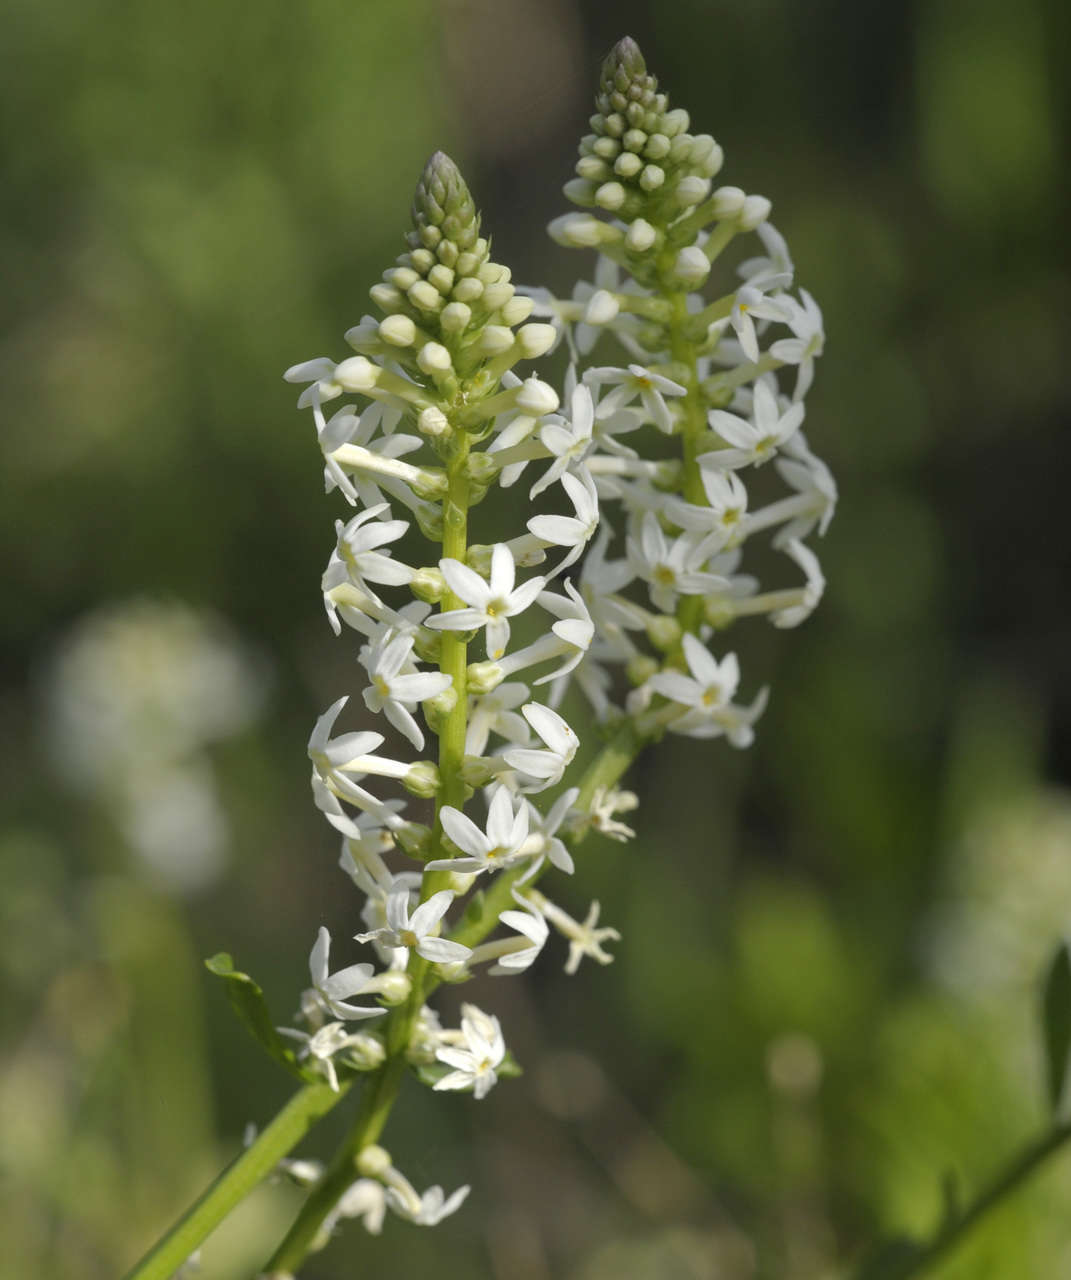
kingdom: Plantae
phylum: Tracheophyta
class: Magnoliopsida
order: Celastrales
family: Celastraceae
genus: Stackhousia
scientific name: Stackhousia monogyna
